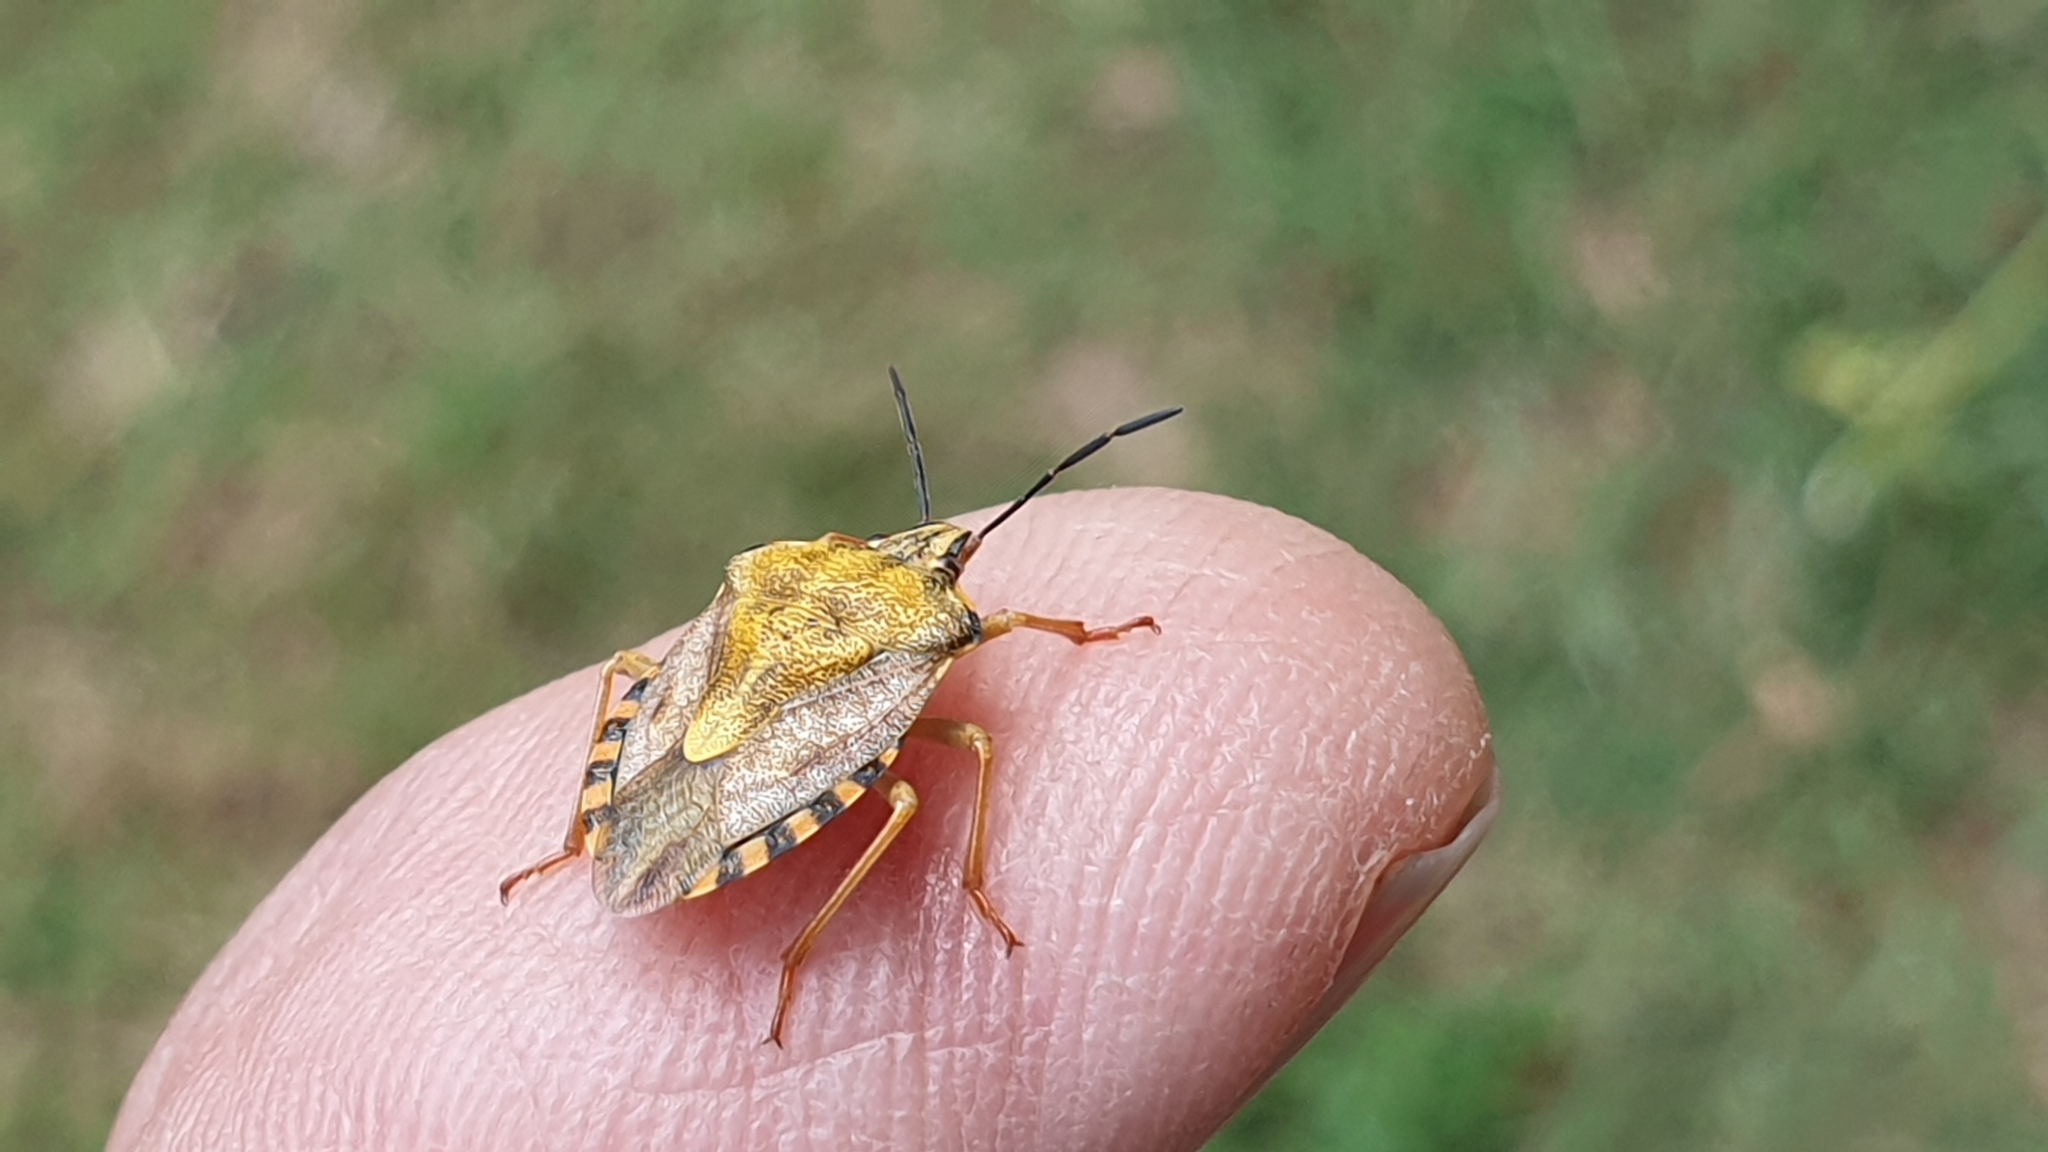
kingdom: Animalia
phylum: Arthropoda
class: Insecta
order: Hemiptera
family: Pentatomidae
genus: Carpocoris
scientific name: Carpocoris purpureipennis
